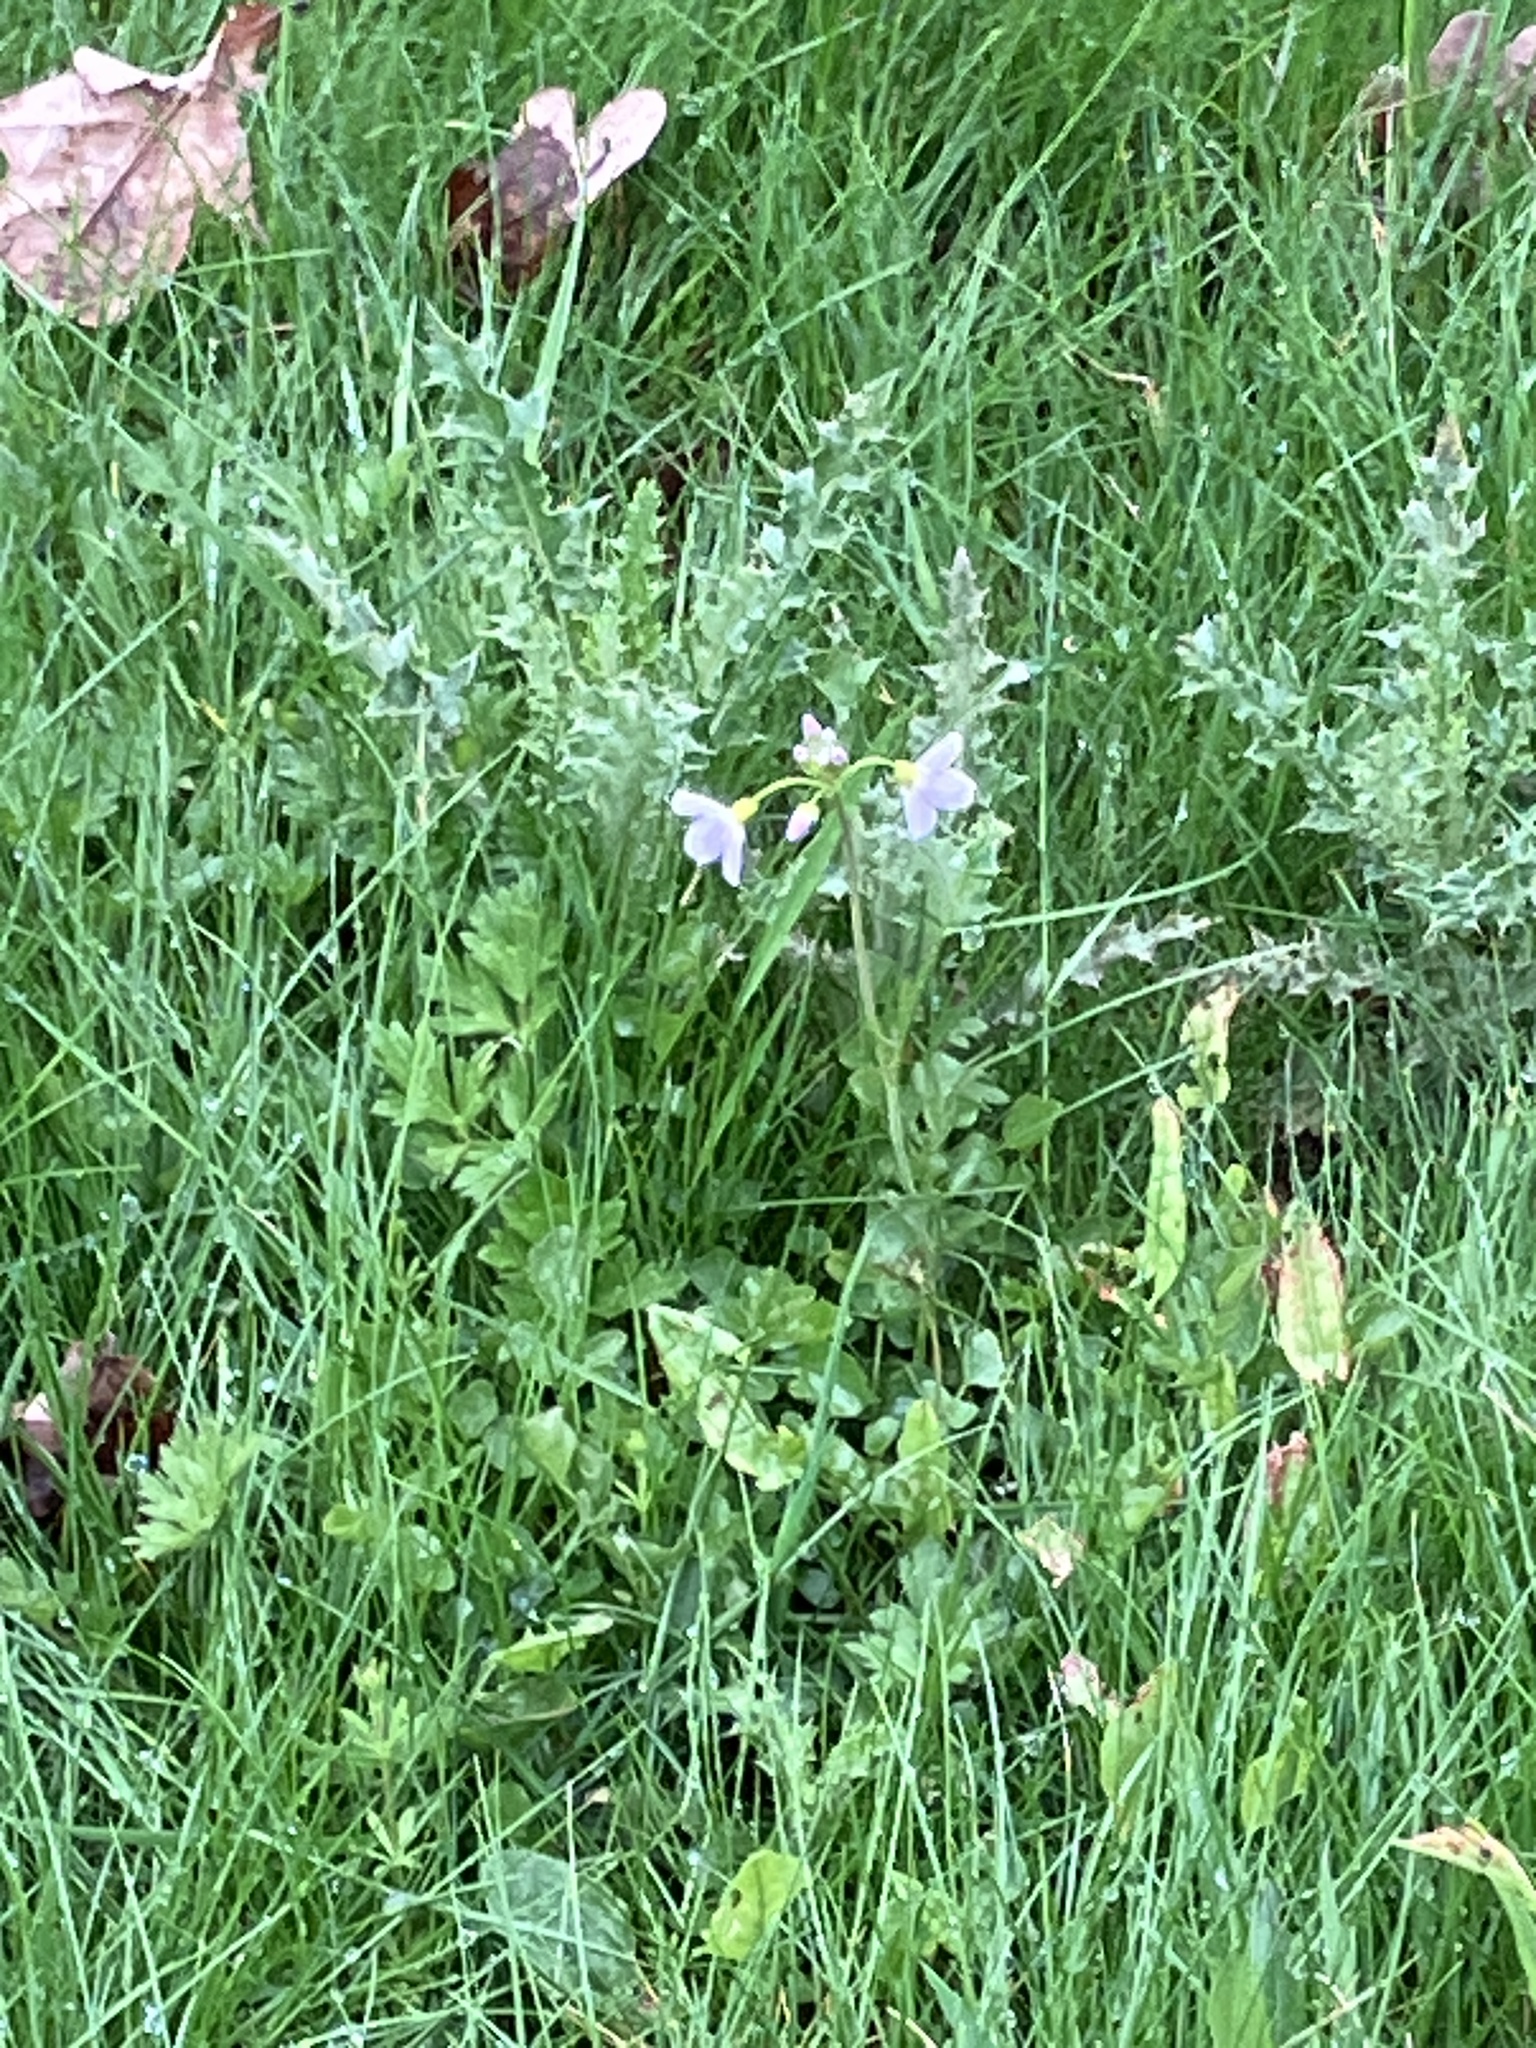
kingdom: Plantae
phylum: Tracheophyta
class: Magnoliopsida
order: Brassicales
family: Brassicaceae
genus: Cardamine
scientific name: Cardamine pratensis
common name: Cuckoo flower
